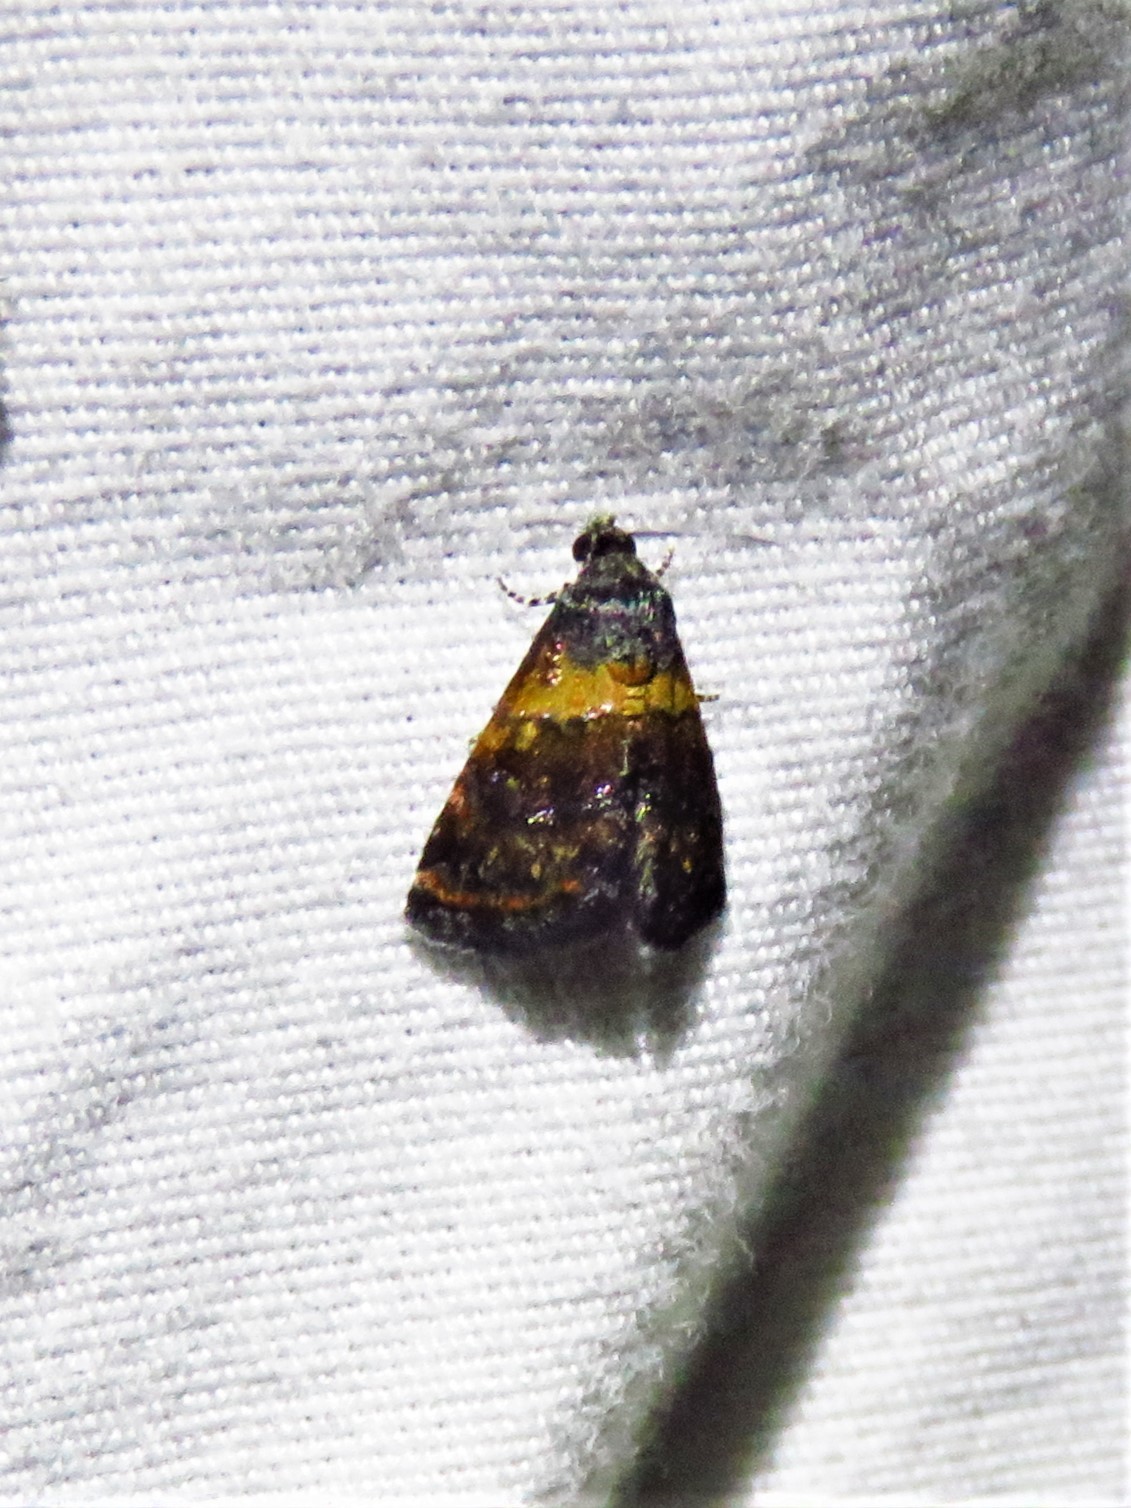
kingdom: Animalia
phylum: Arthropoda
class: Insecta
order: Lepidoptera
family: Noctuidae
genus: Tripudia
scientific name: Tripudia flavofasciata
